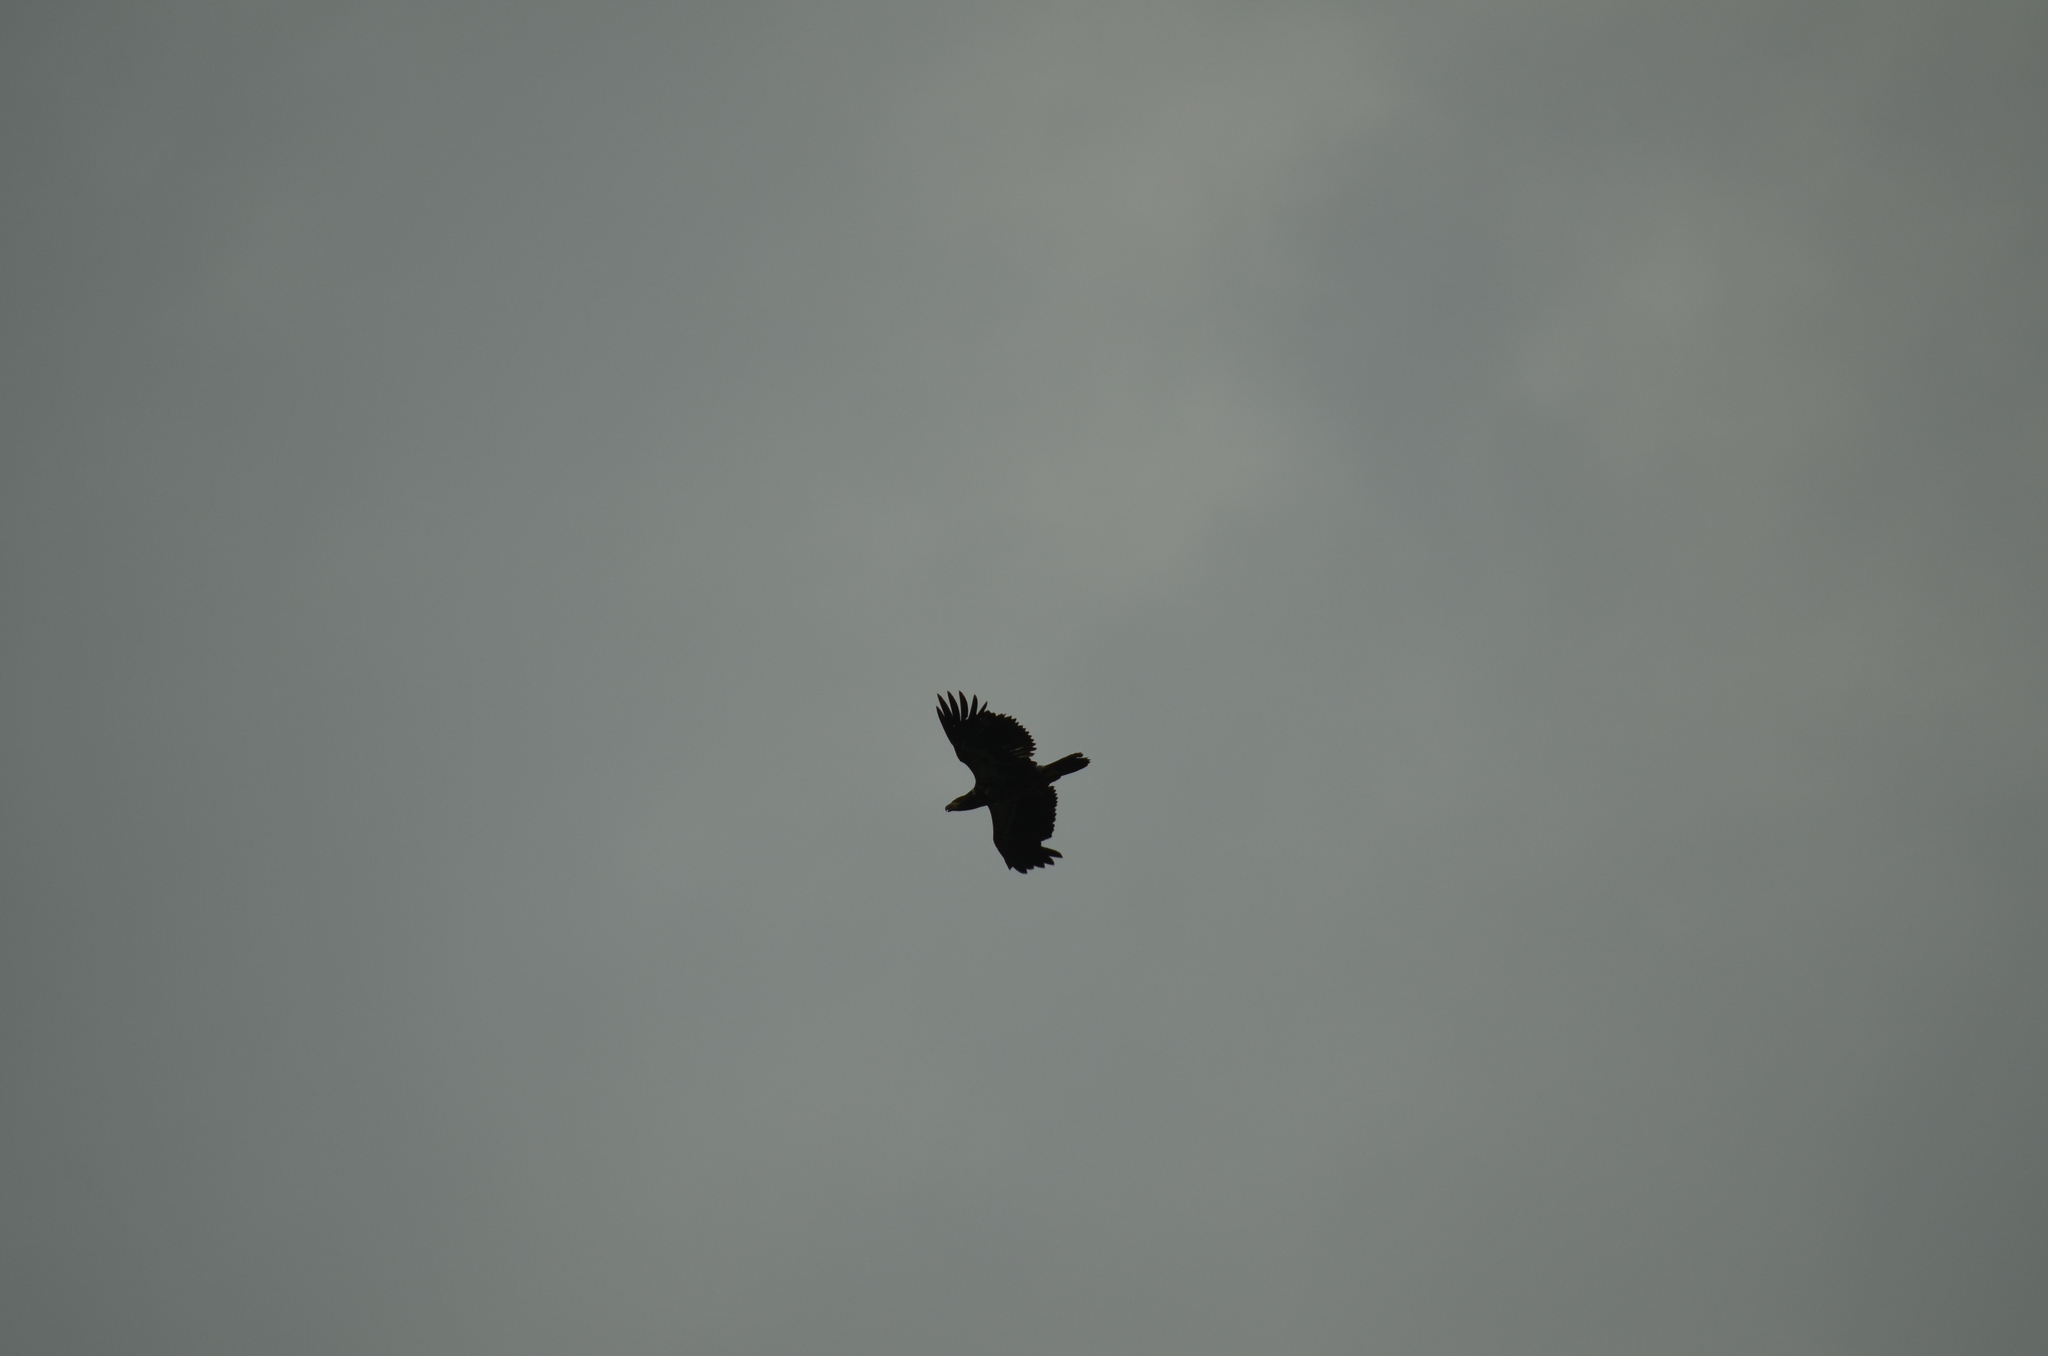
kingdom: Animalia
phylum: Chordata
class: Aves
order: Accipitriformes
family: Accipitridae
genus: Haliaeetus
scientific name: Haliaeetus leucocephalus
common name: Bald eagle
